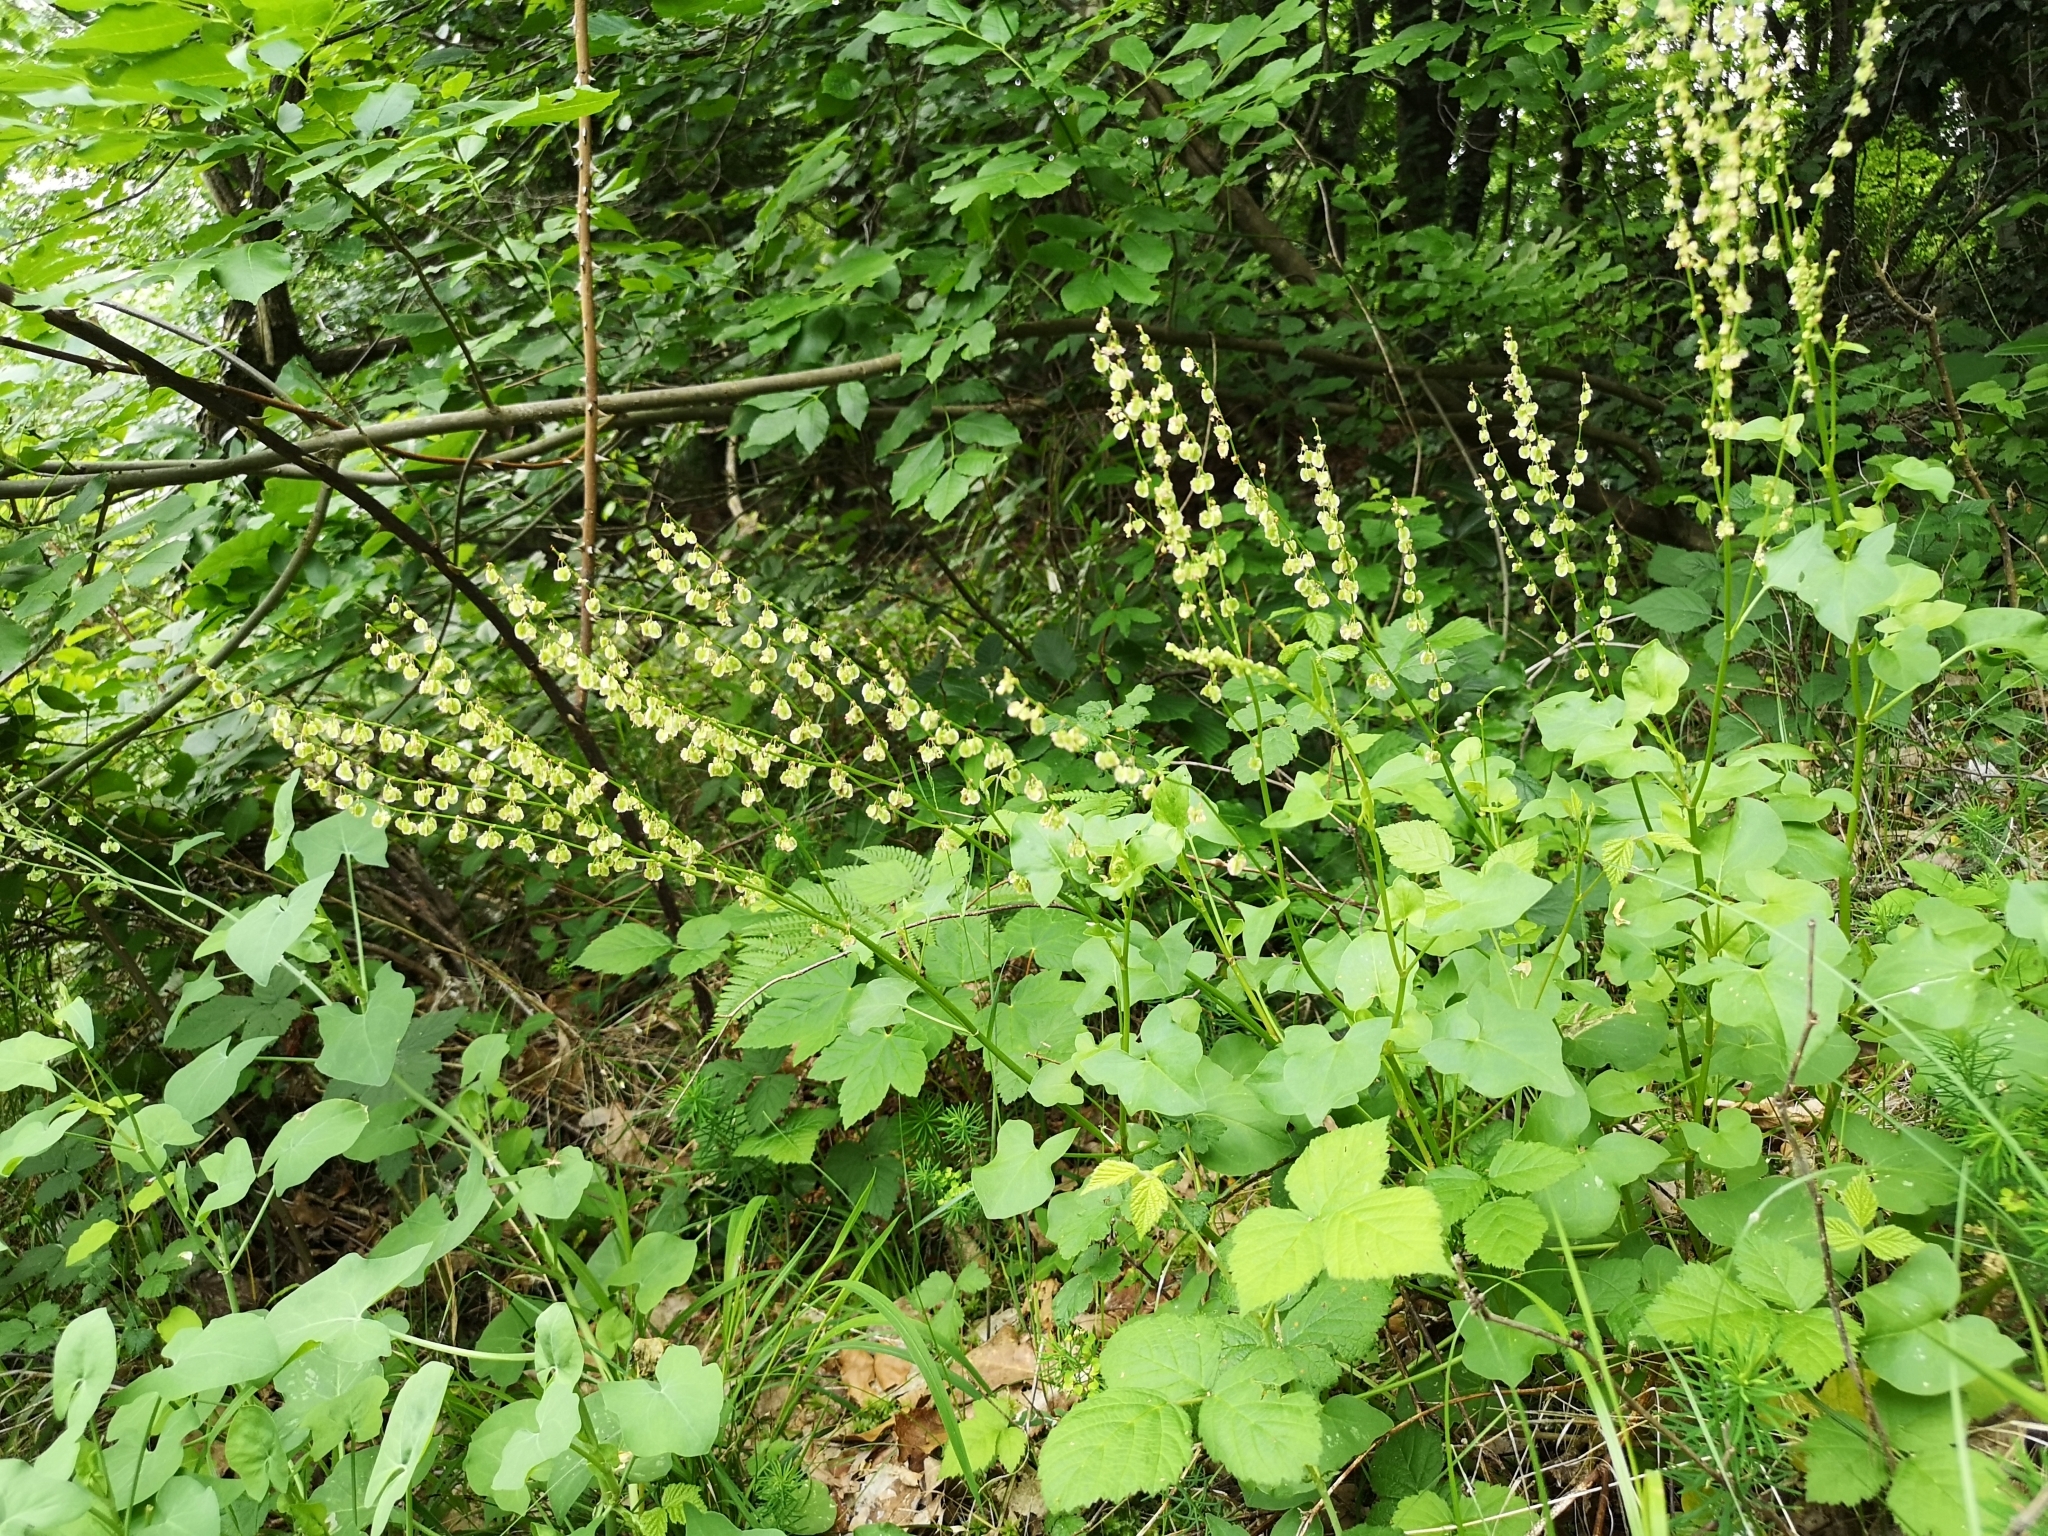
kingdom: Plantae
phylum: Tracheophyta
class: Magnoliopsida
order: Caryophyllales
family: Polygonaceae
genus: Rumex
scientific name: Rumex scutatus
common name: French sorrel
